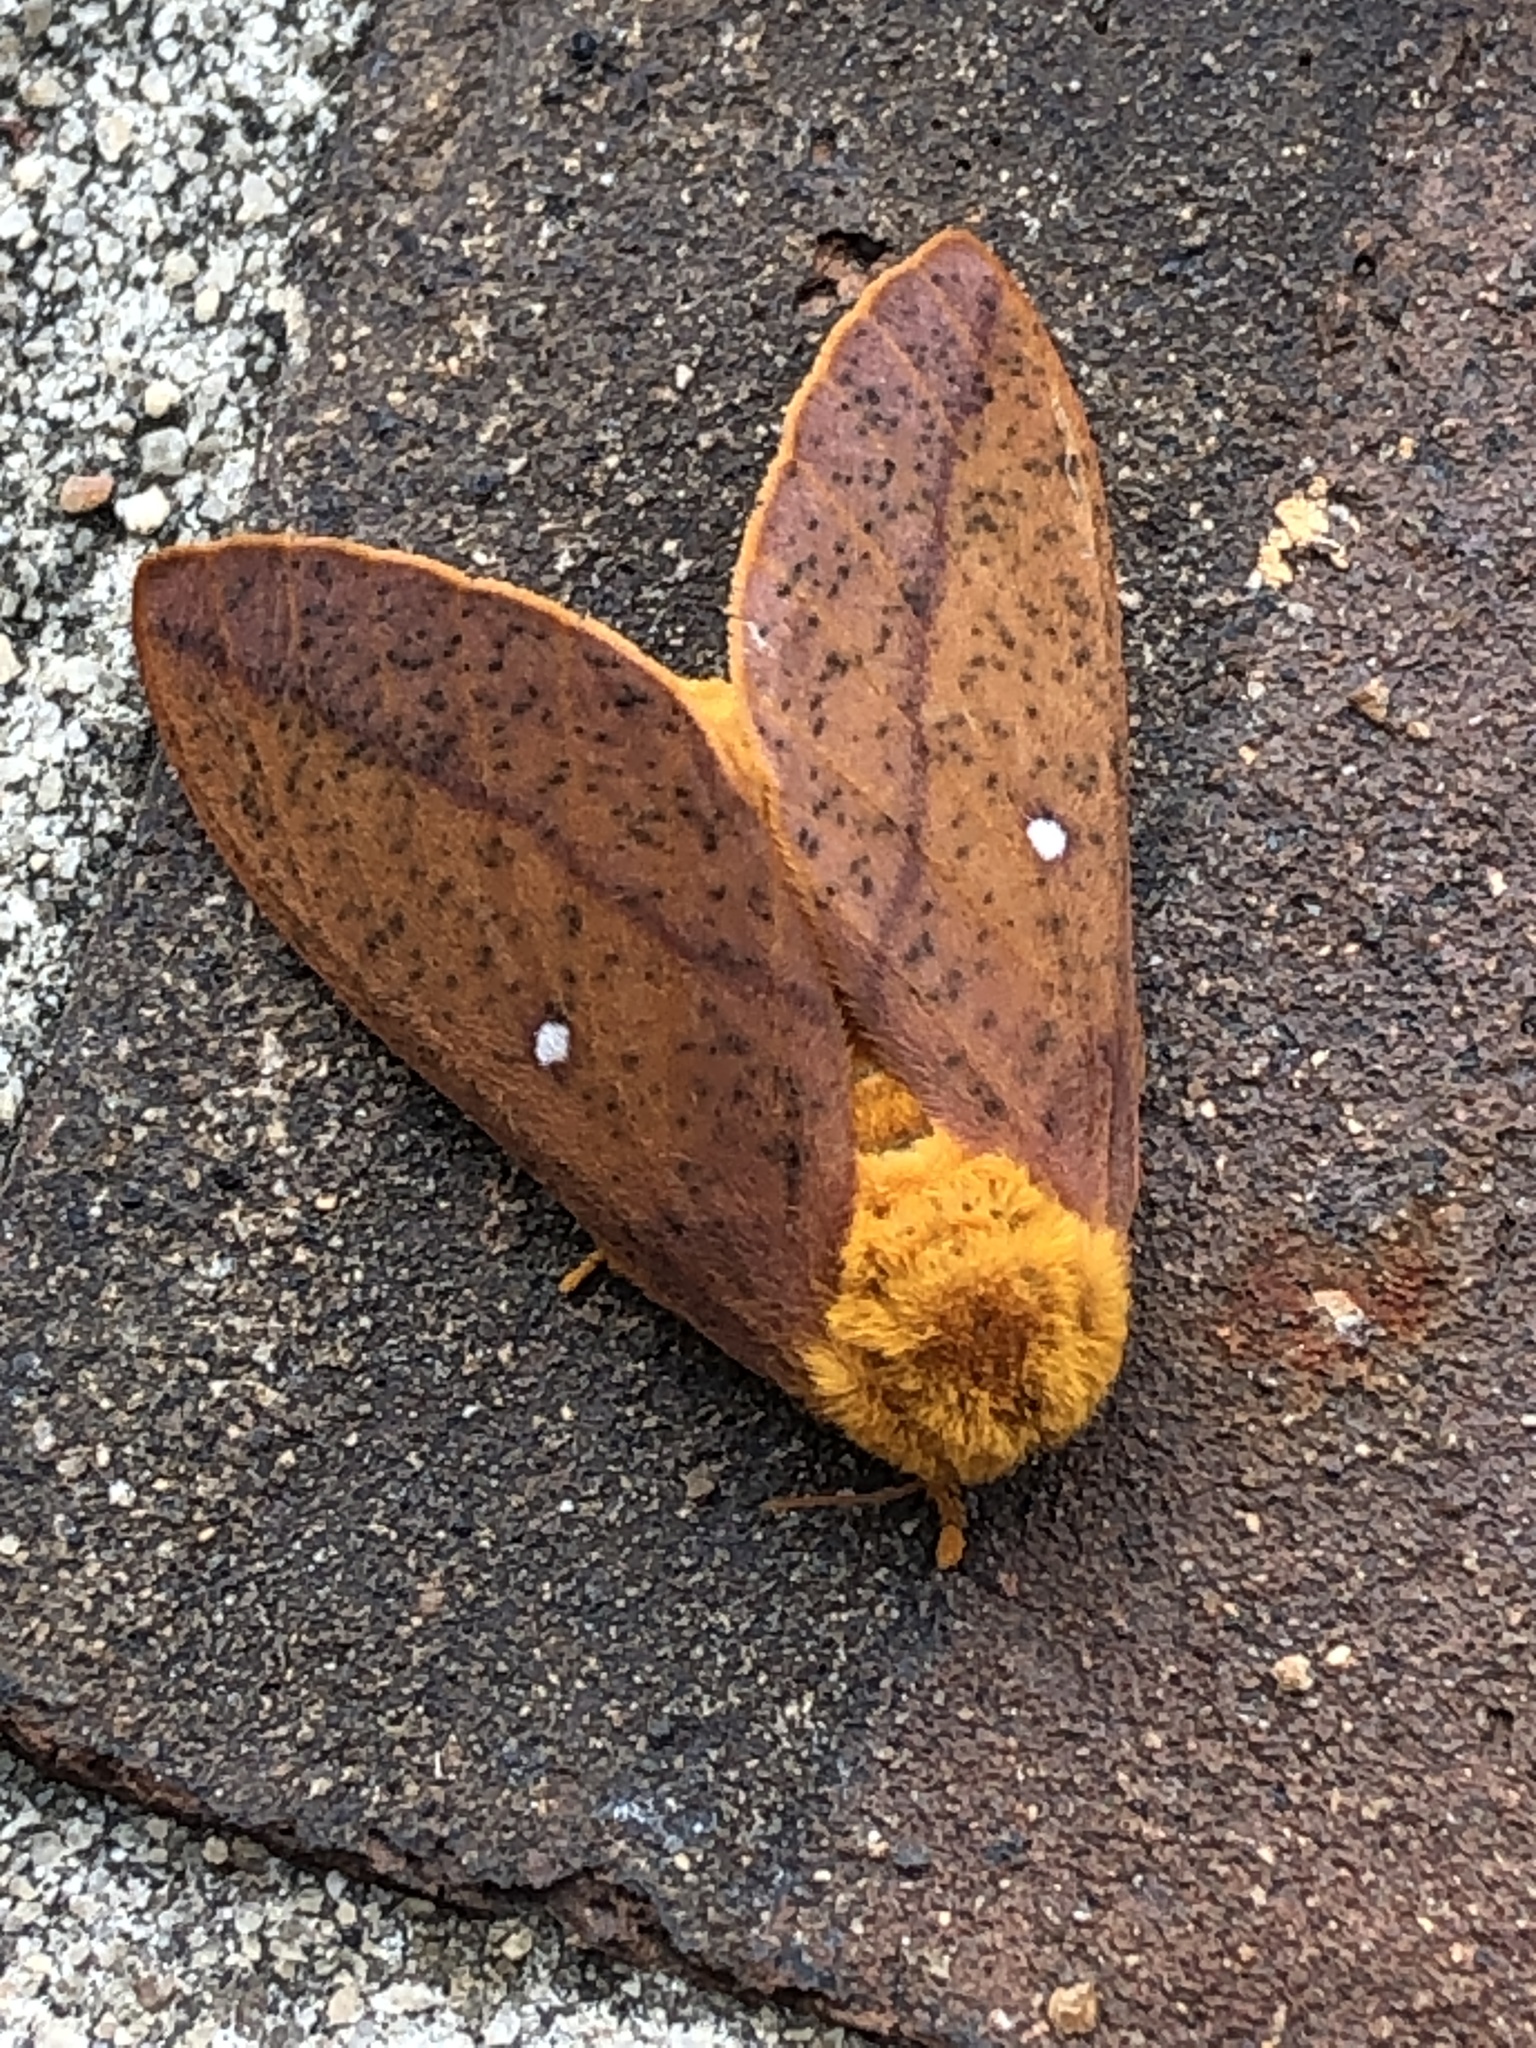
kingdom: Animalia
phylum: Arthropoda
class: Insecta
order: Lepidoptera
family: Saturniidae
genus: Anisota
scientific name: Anisota peigleri
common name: Peigler's oakworm moth
